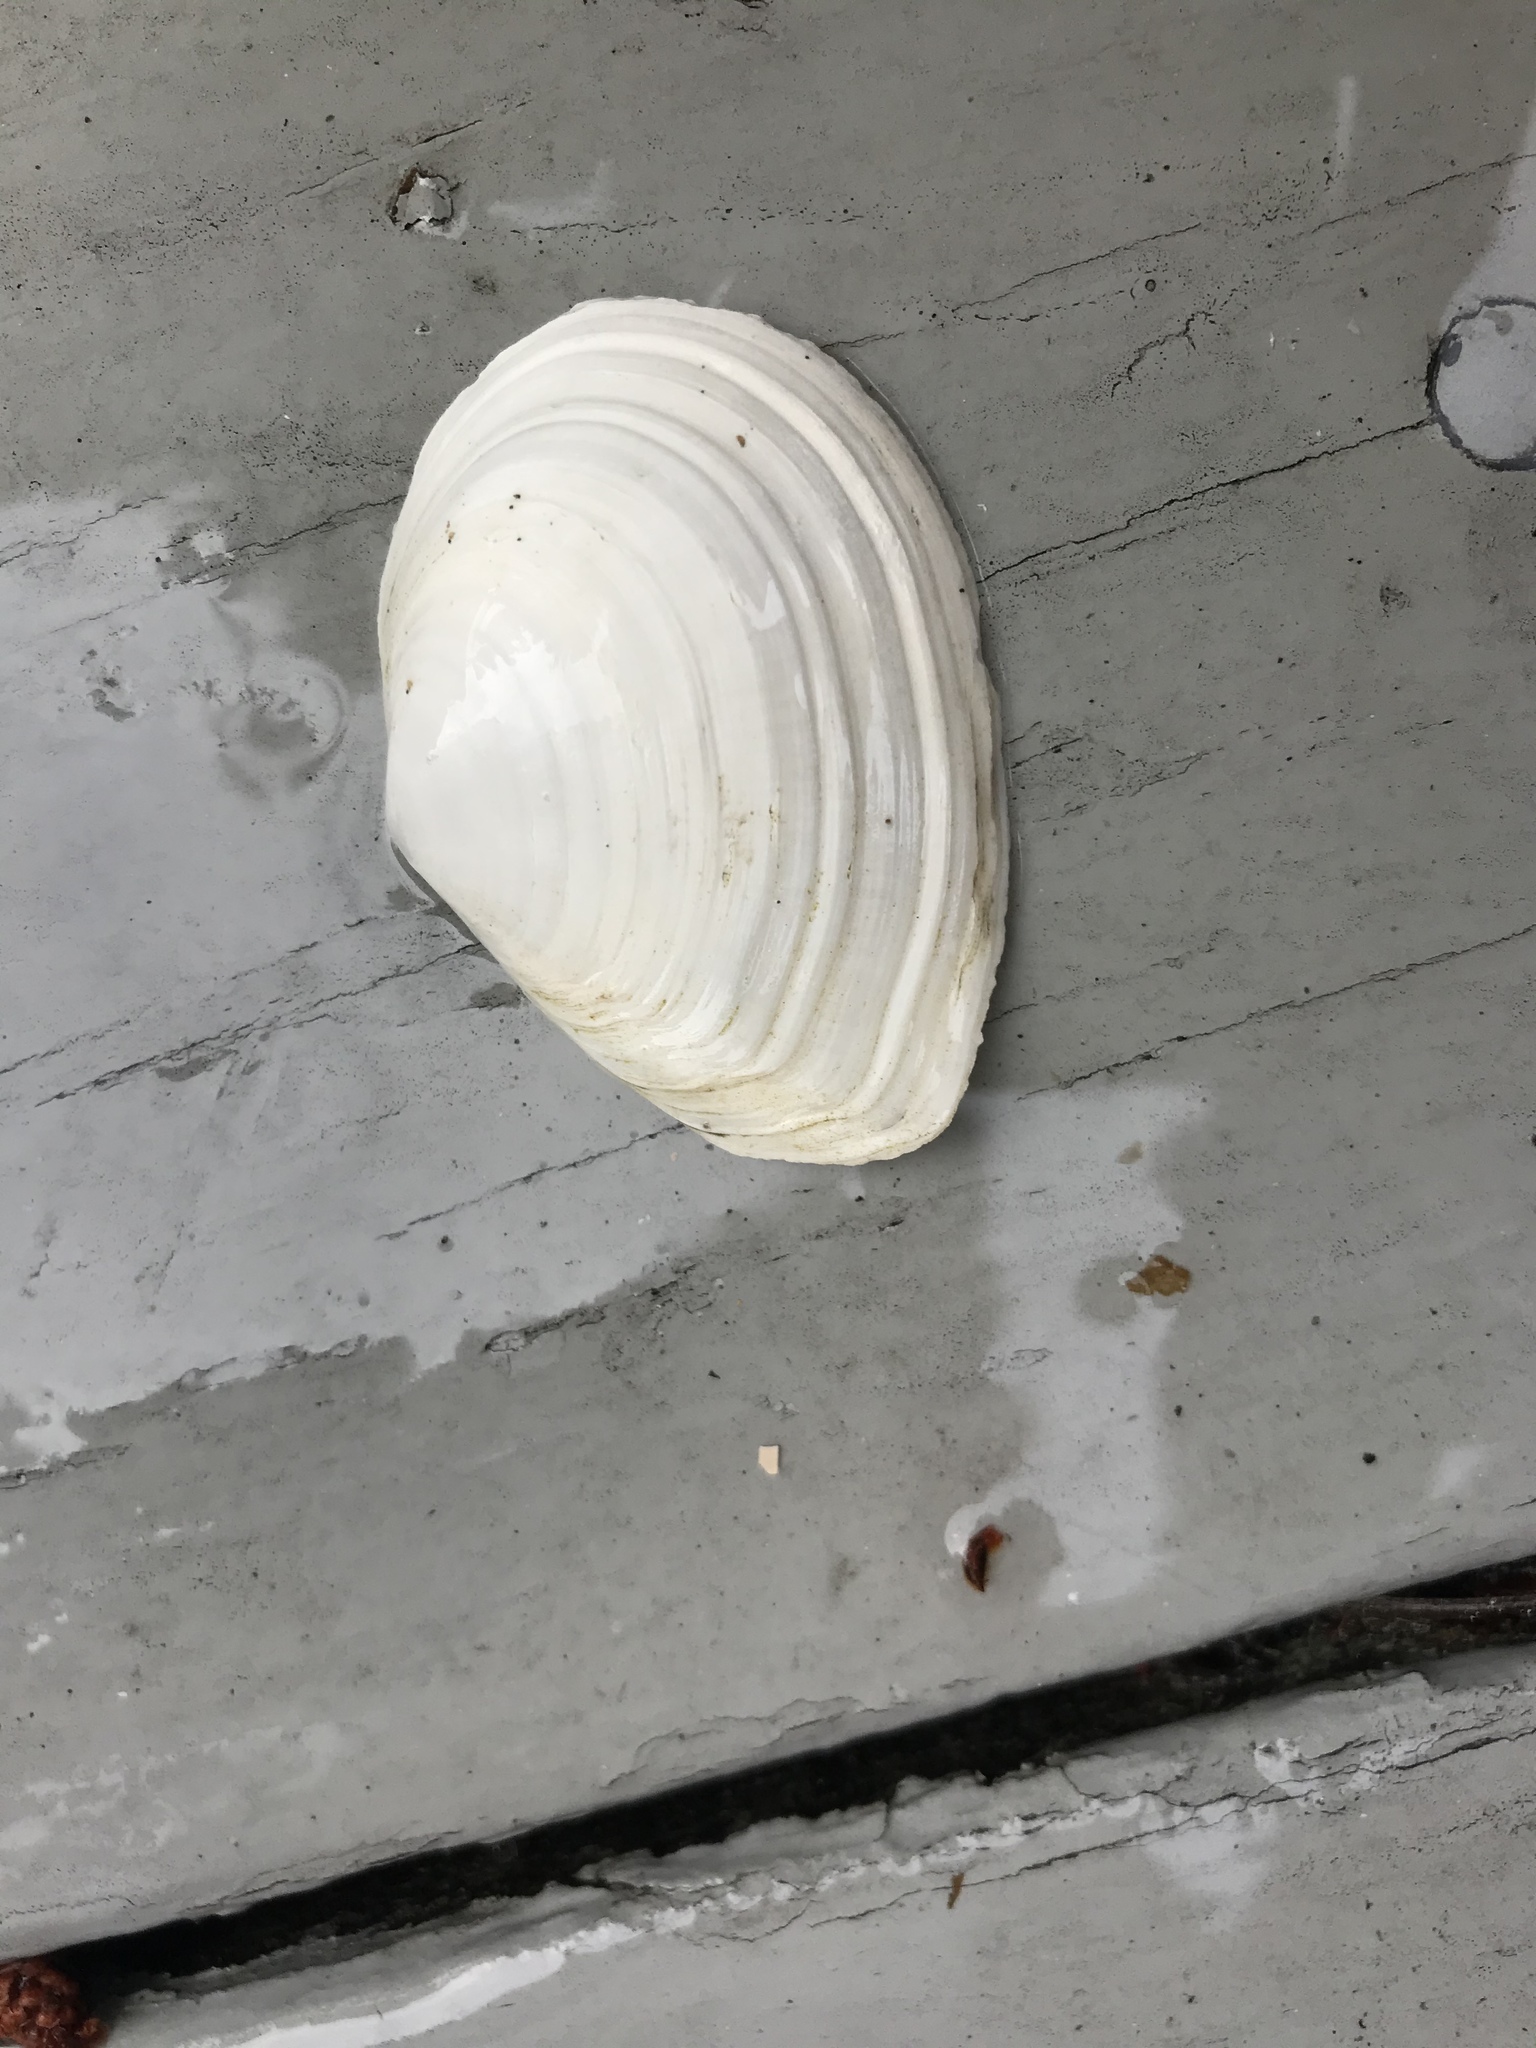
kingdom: Animalia
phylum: Mollusca
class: Bivalvia
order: Cardiida
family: Tellinidae
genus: Macoma
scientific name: Macoma nasuta
